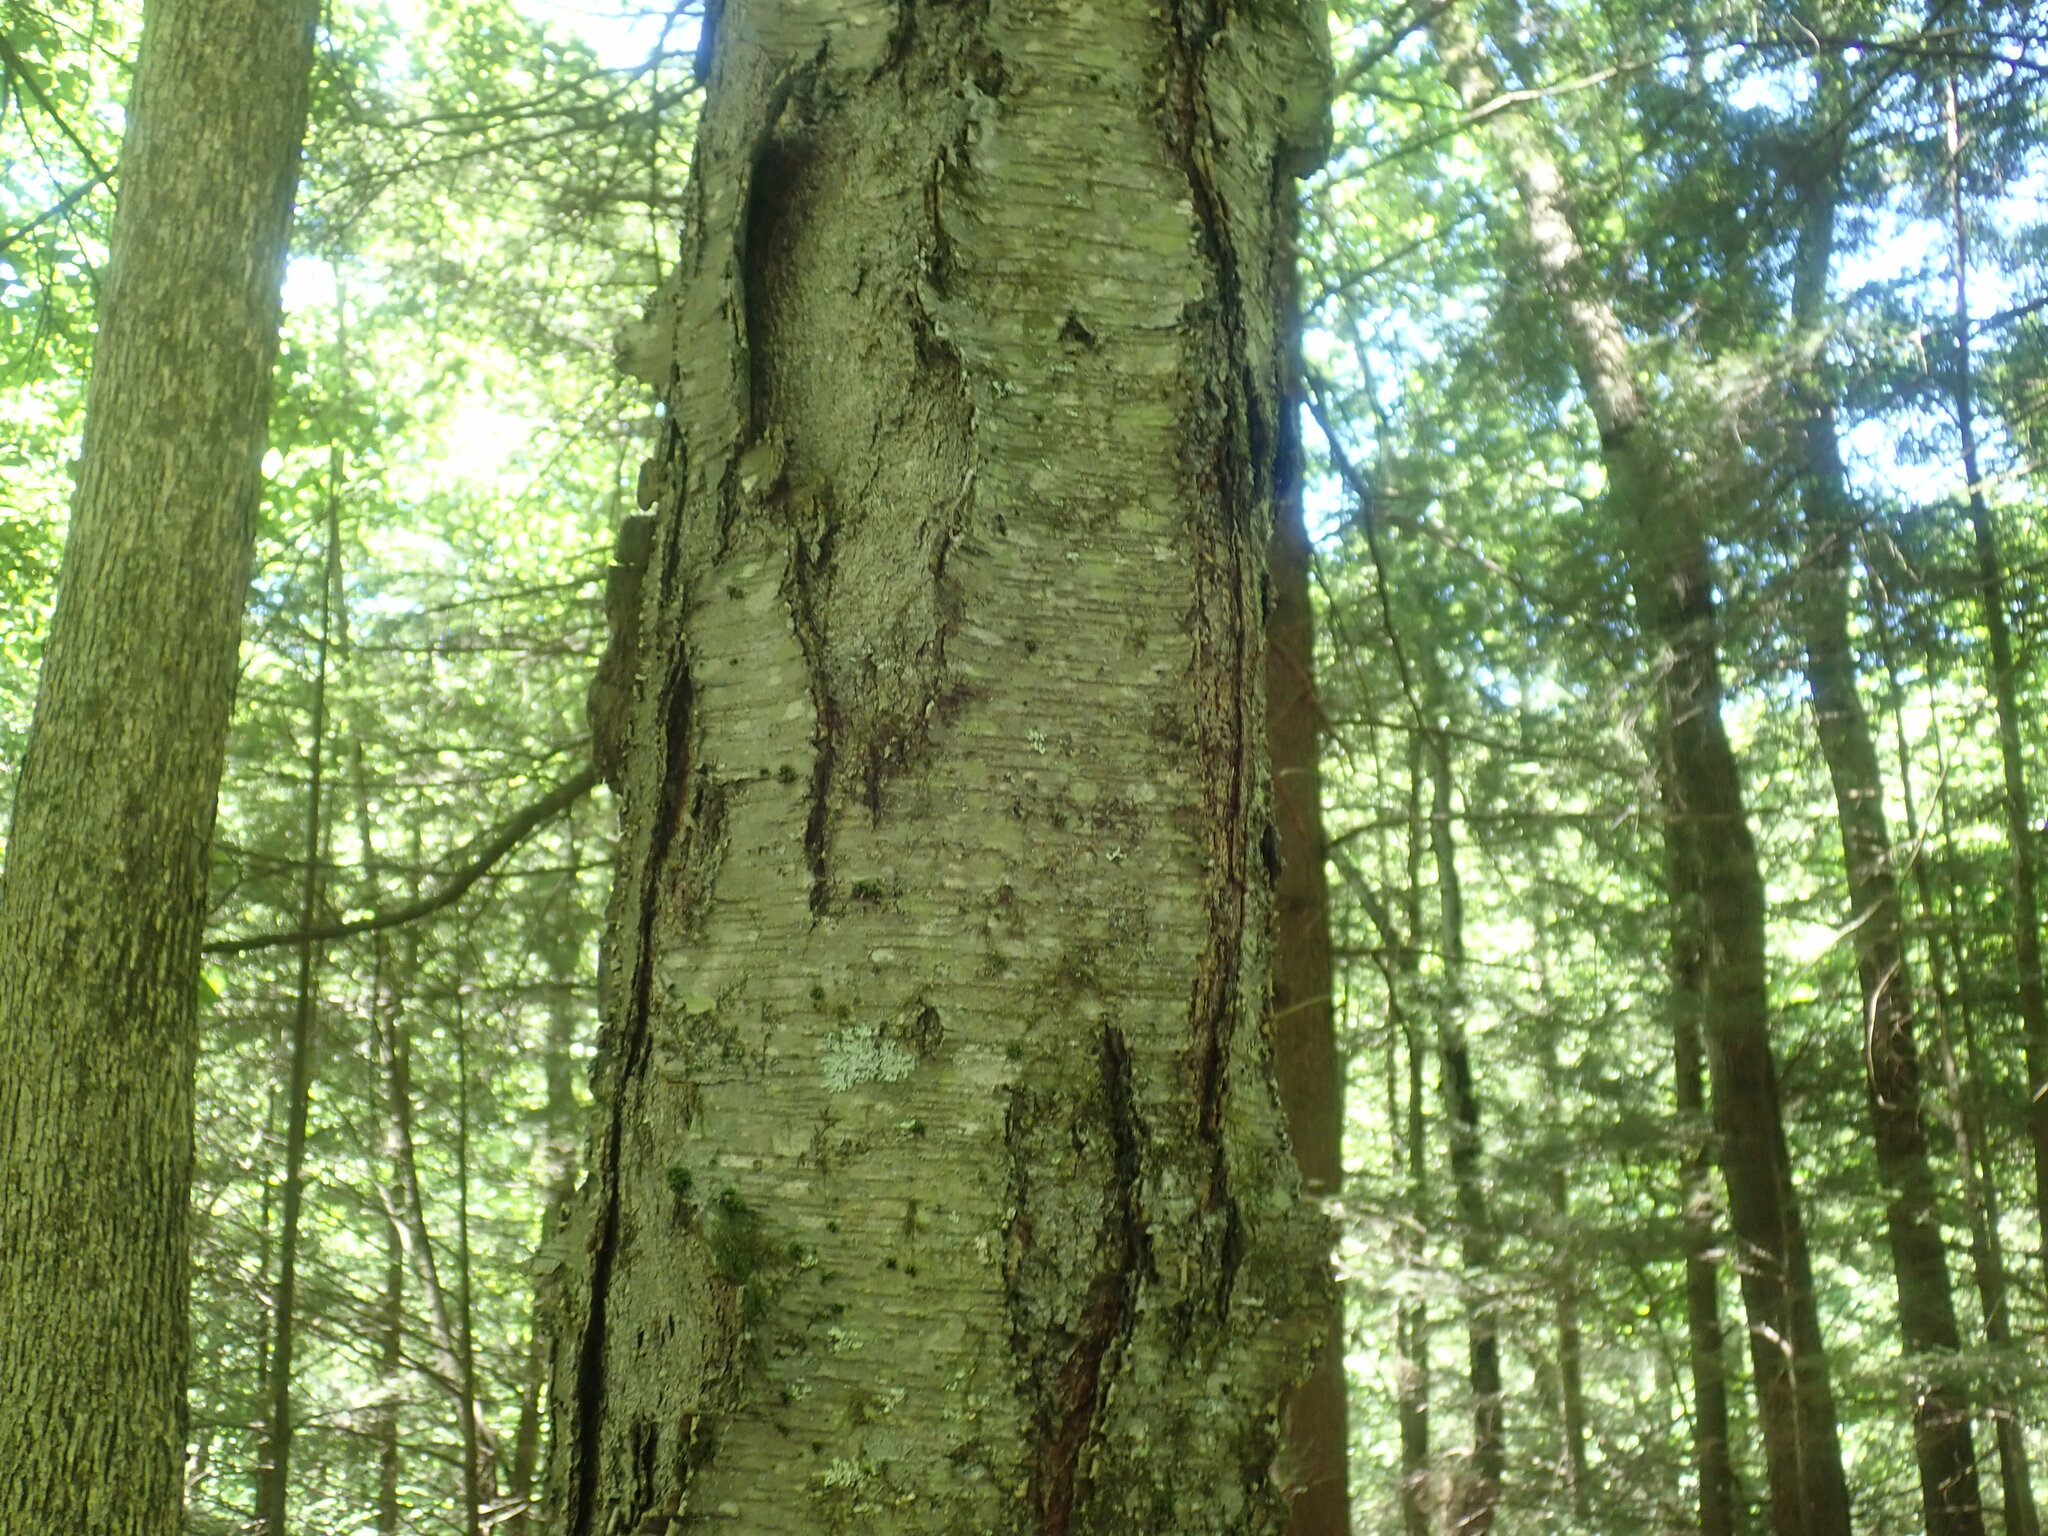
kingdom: Plantae
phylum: Tracheophyta
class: Magnoliopsida
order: Fagales
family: Betulaceae
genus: Betula
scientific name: Betula lenta
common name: Black birch
